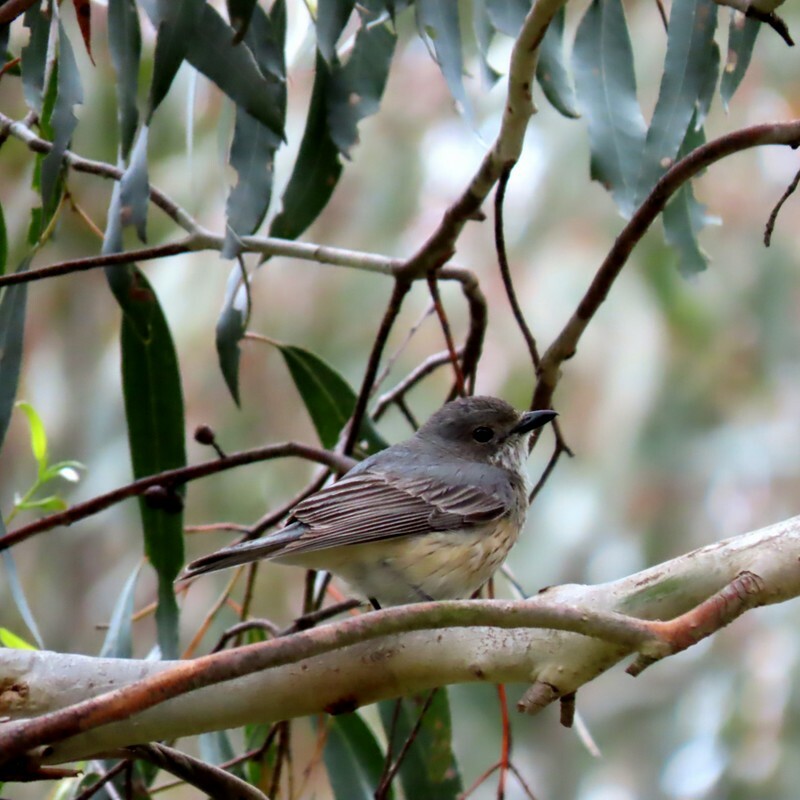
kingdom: Animalia
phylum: Chordata
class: Aves
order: Passeriformes
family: Pachycephalidae
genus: Pachycephala
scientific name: Pachycephala rufiventris
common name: Rufous whistler
